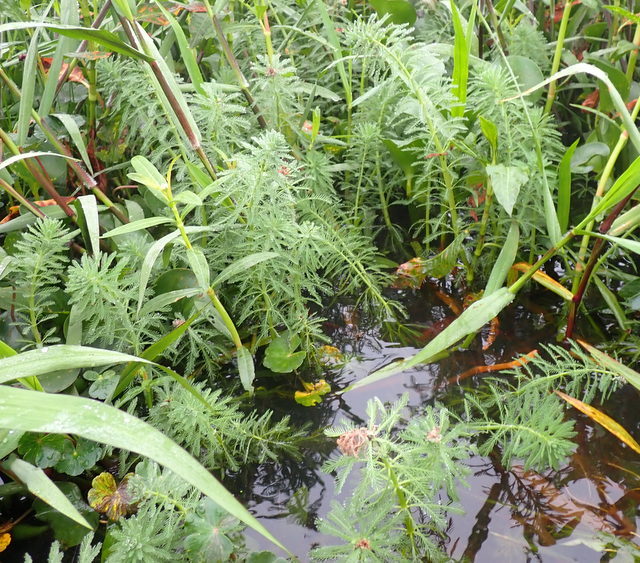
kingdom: Plantae
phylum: Tracheophyta
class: Magnoliopsida
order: Saxifragales
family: Haloragaceae
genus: Myriophyllum
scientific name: Myriophyllum aquaticum
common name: Parrot's feather
